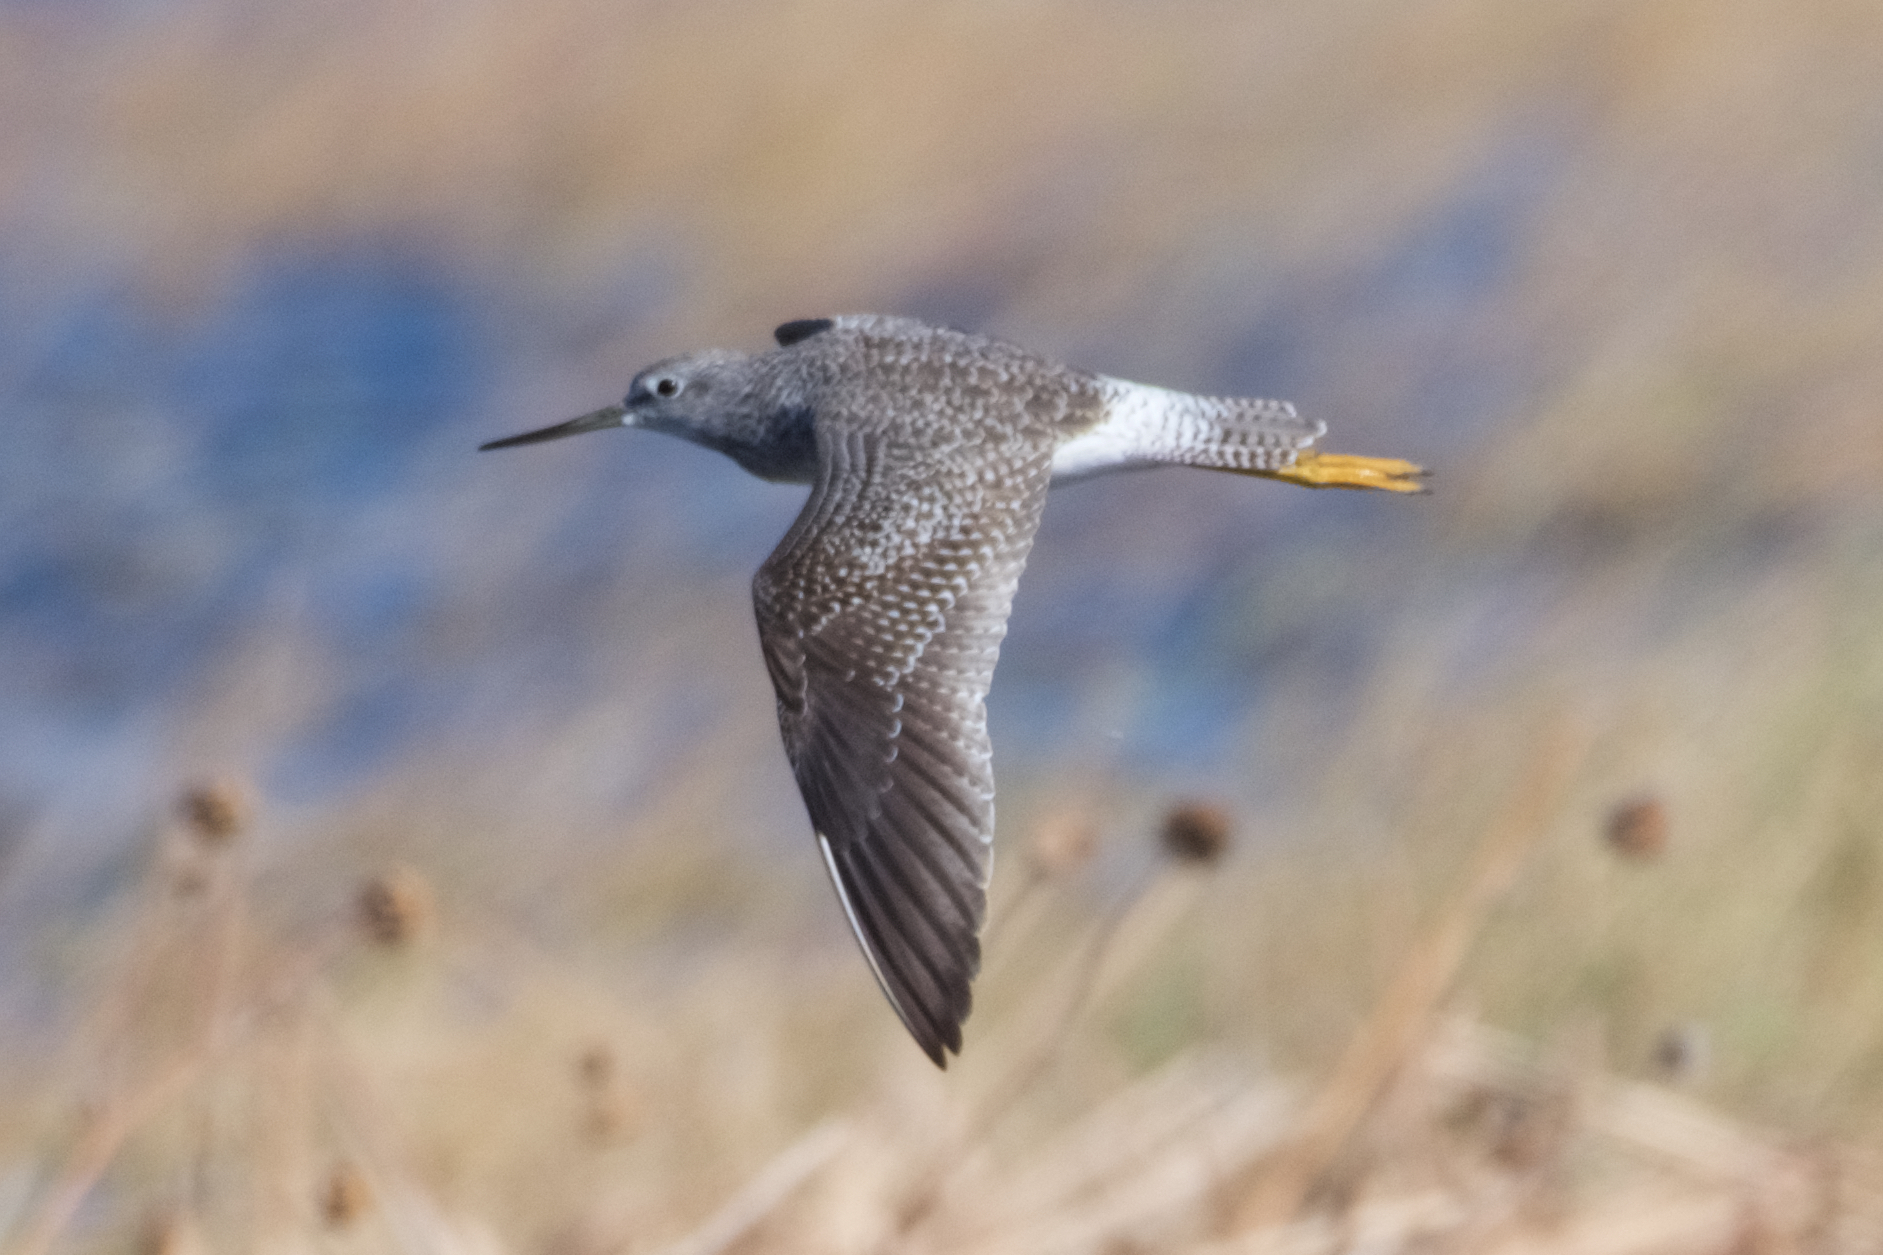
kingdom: Animalia
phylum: Chordata
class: Aves
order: Charadriiformes
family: Scolopacidae
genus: Tringa
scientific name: Tringa melanoleuca
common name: Greater yellowlegs
